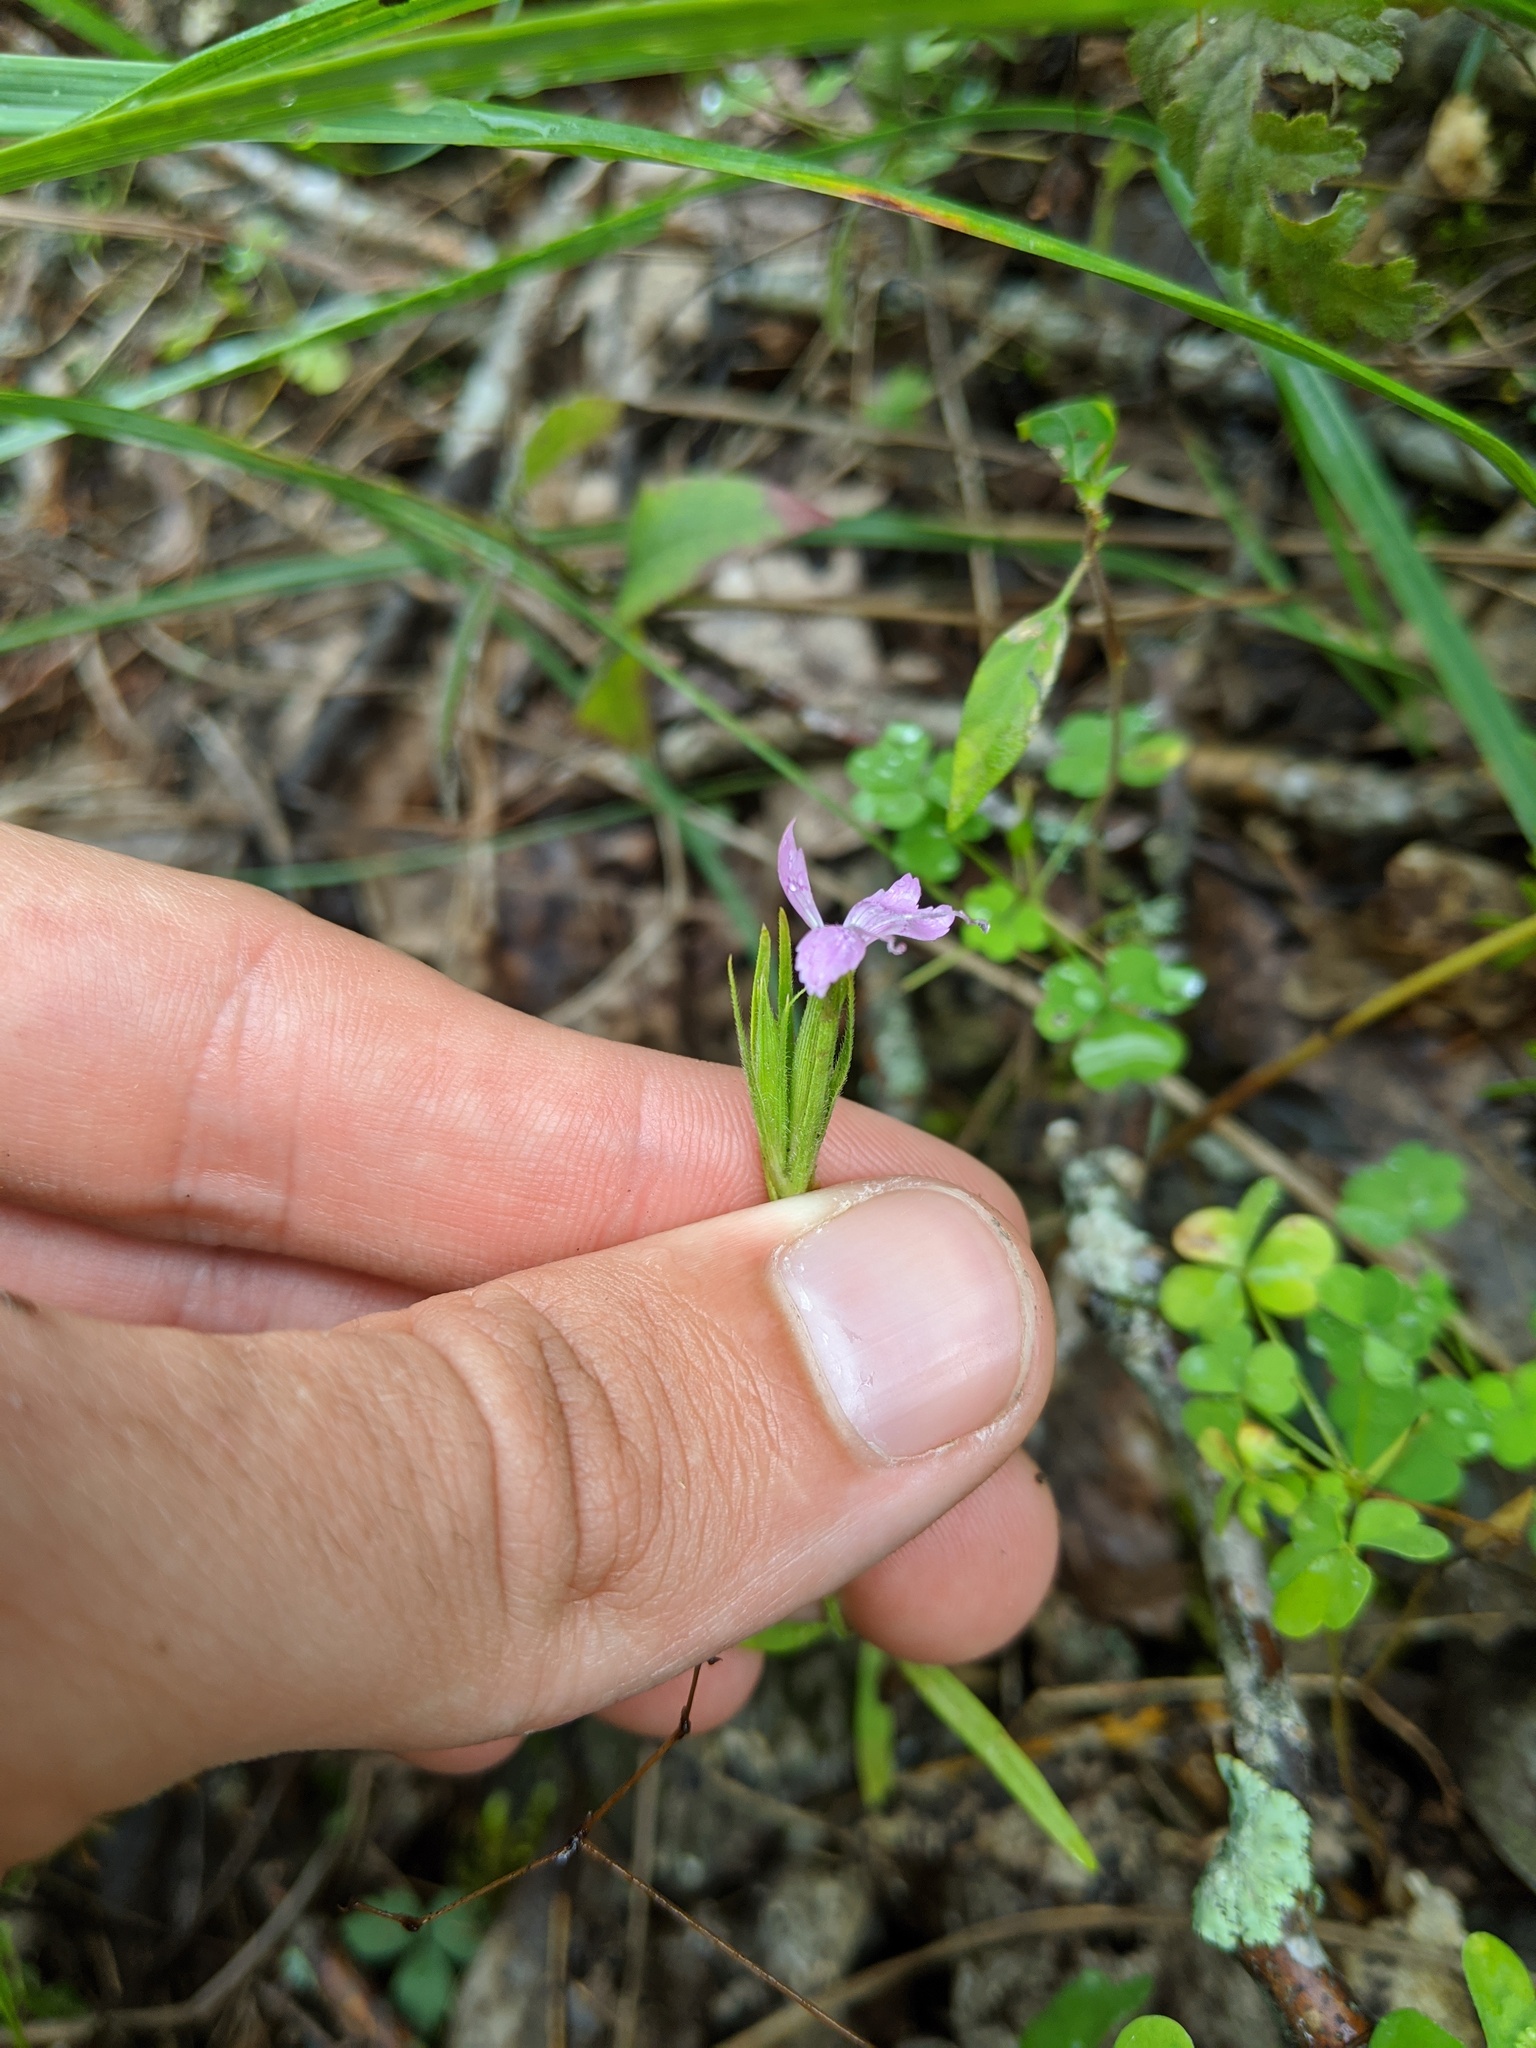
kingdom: Plantae
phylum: Tracheophyta
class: Magnoliopsida
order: Caryophyllales
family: Caryophyllaceae
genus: Dianthus
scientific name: Dianthus armeria
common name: Deptford pink
